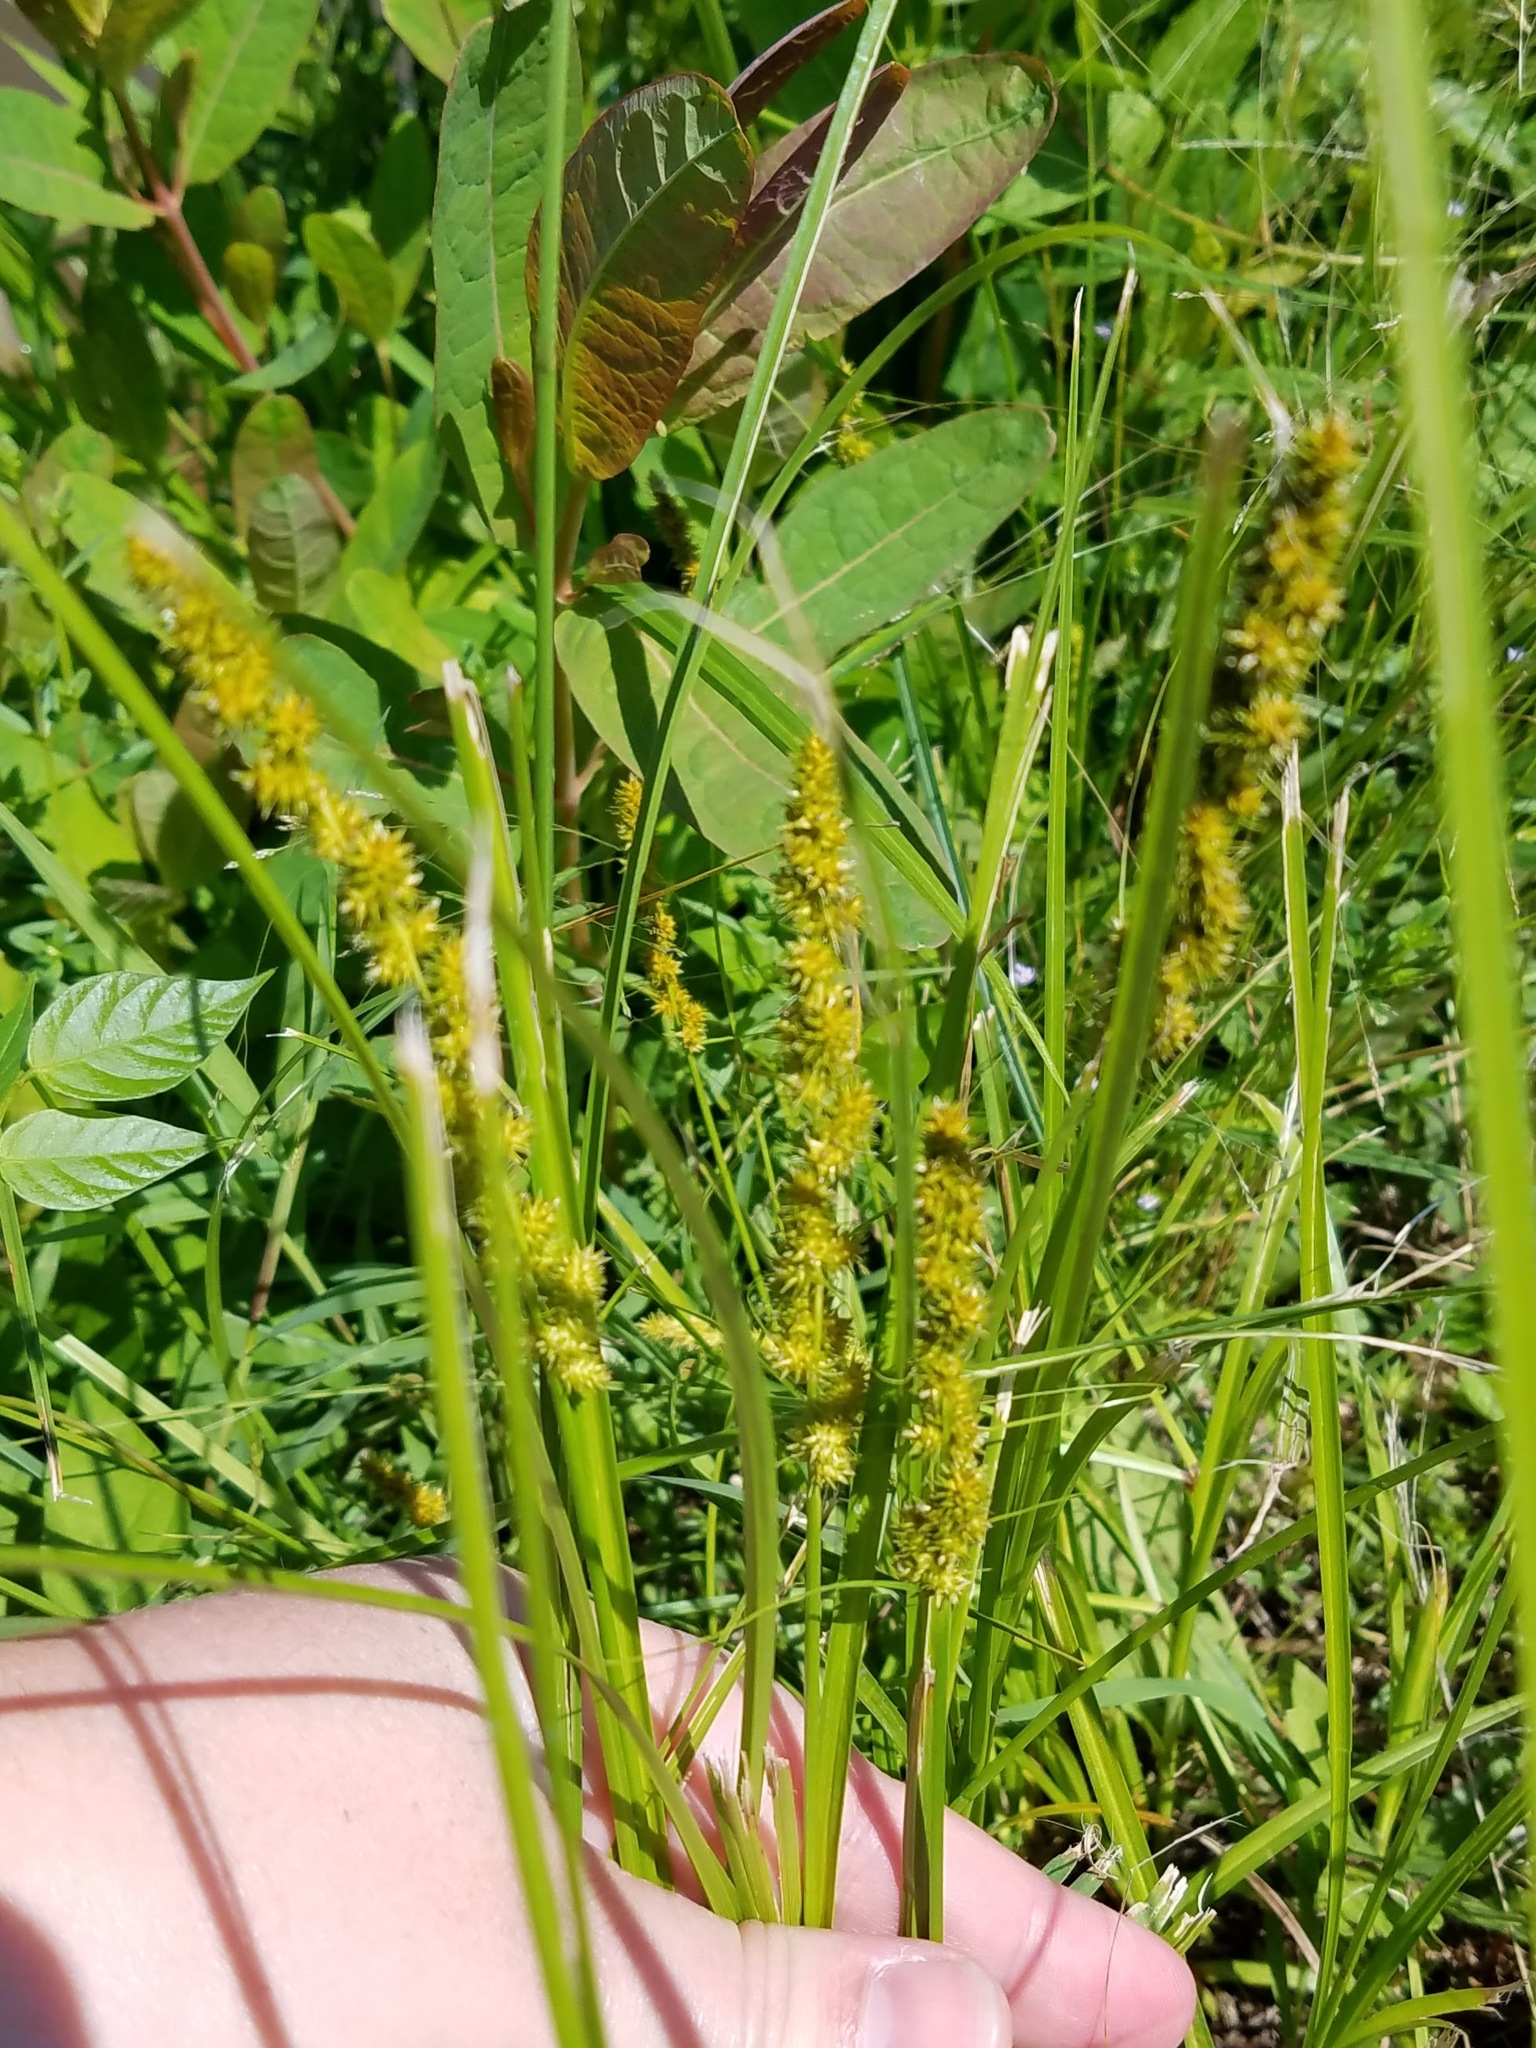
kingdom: Plantae
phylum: Tracheophyta
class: Liliopsida
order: Poales
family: Cyperaceae
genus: Carex
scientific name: Carex vulpinoidea
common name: American fox-sedge
